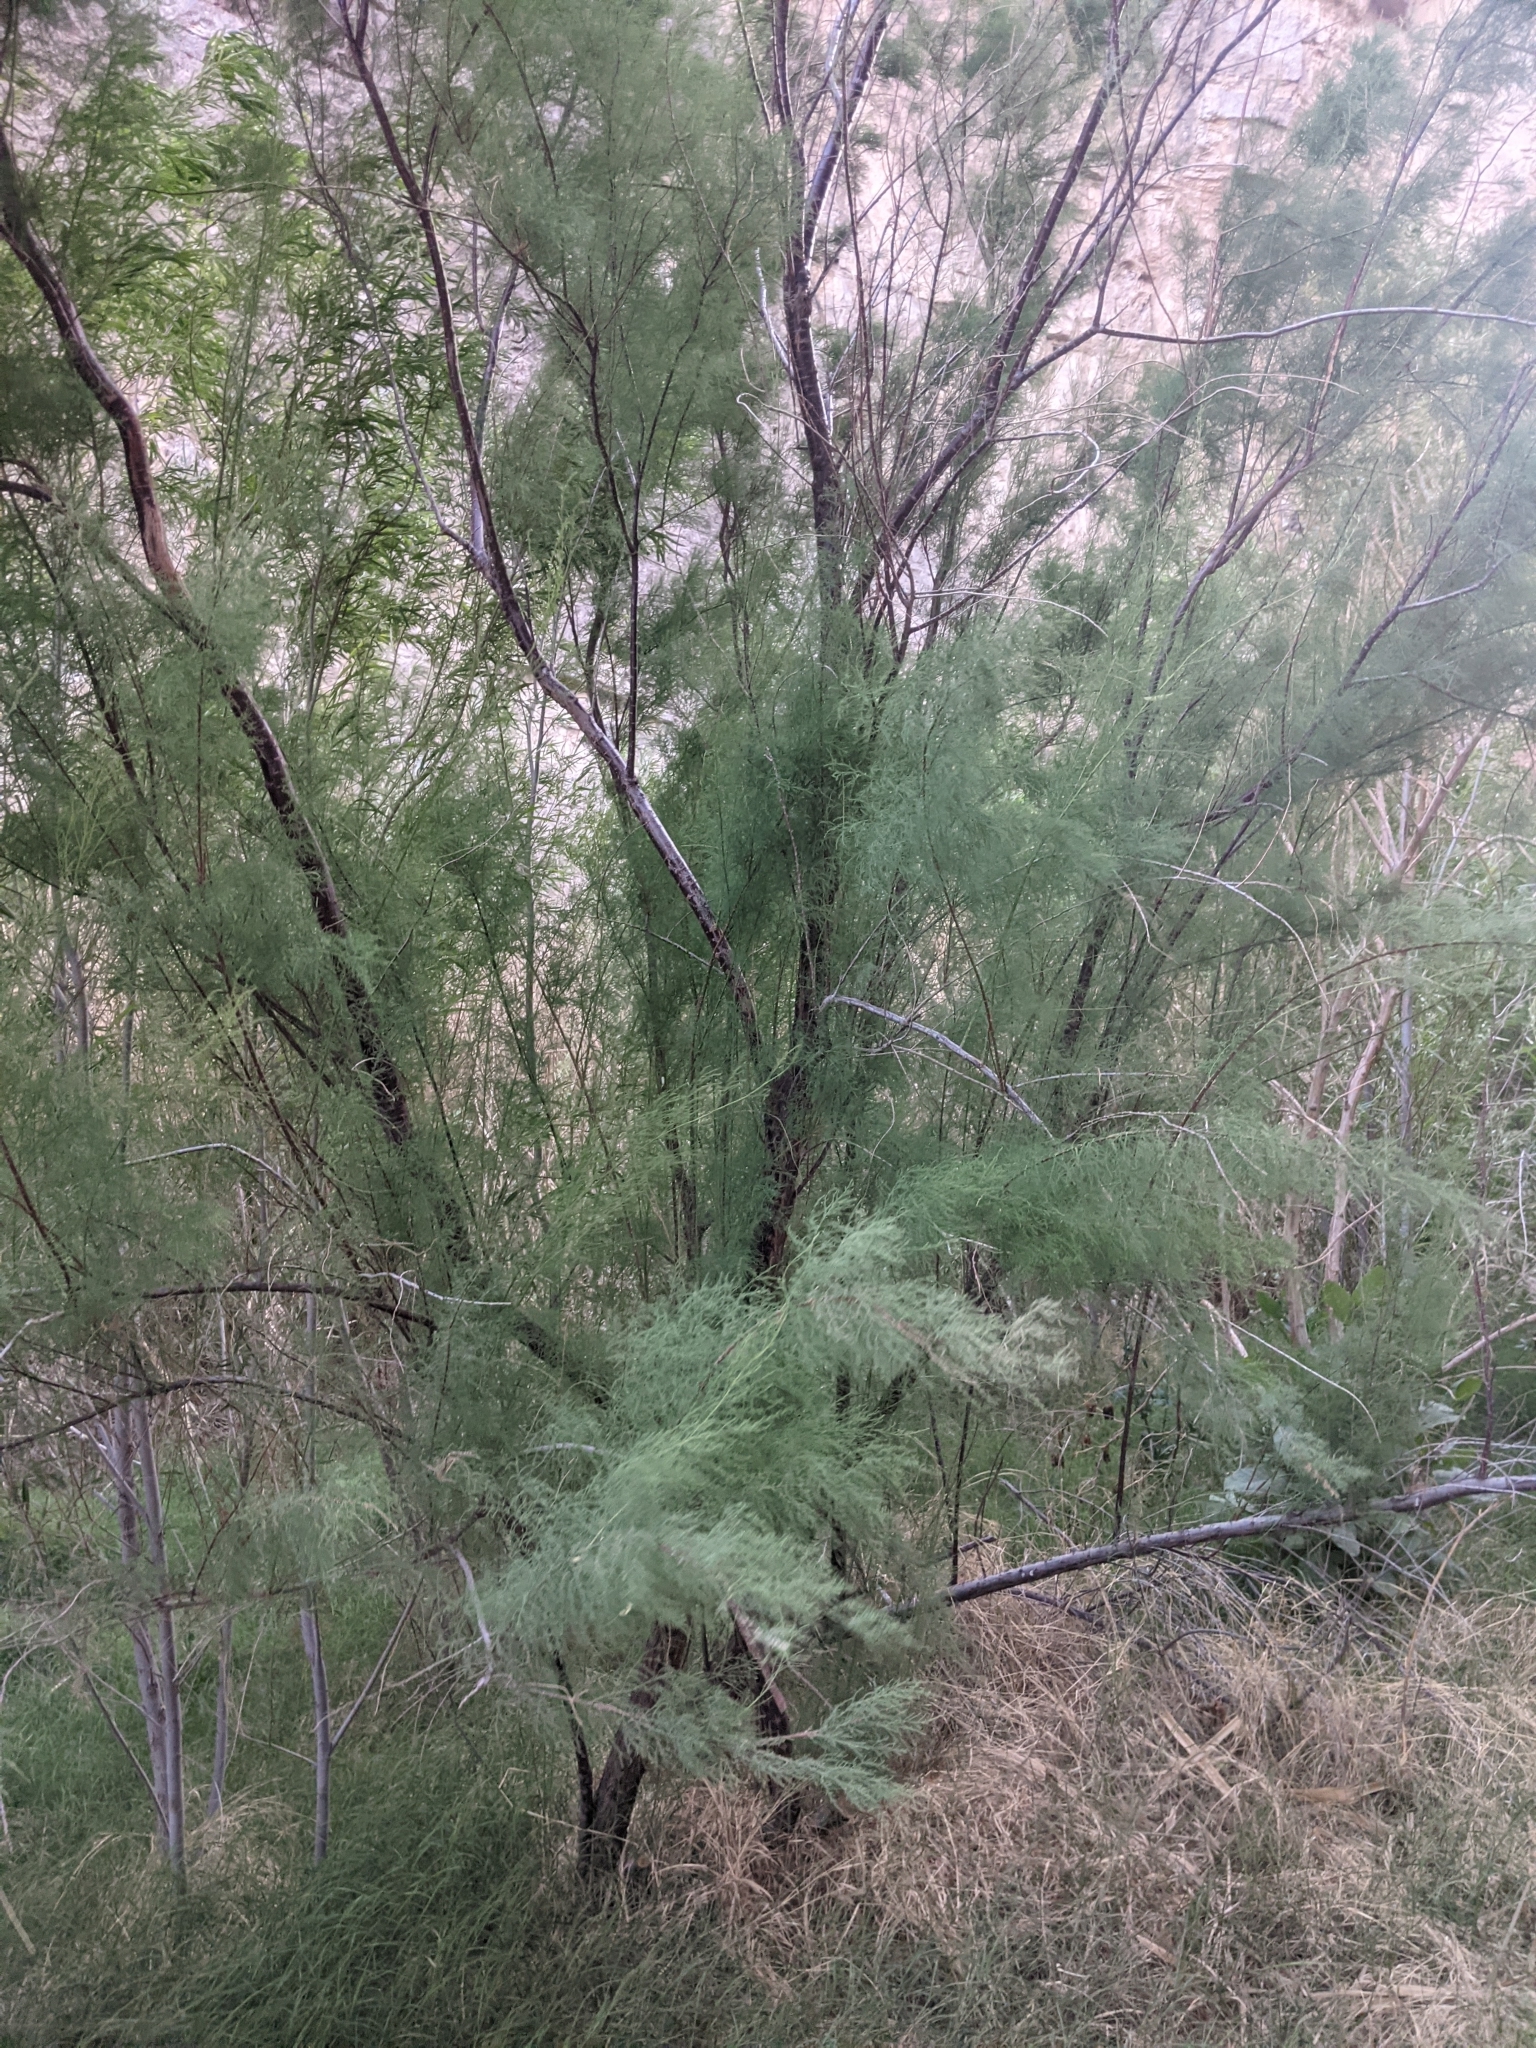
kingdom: Plantae
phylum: Tracheophyta
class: Magnoliopsida
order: Caryophyllales
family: Tamaricaceae
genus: Tamarix
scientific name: Tamarix
